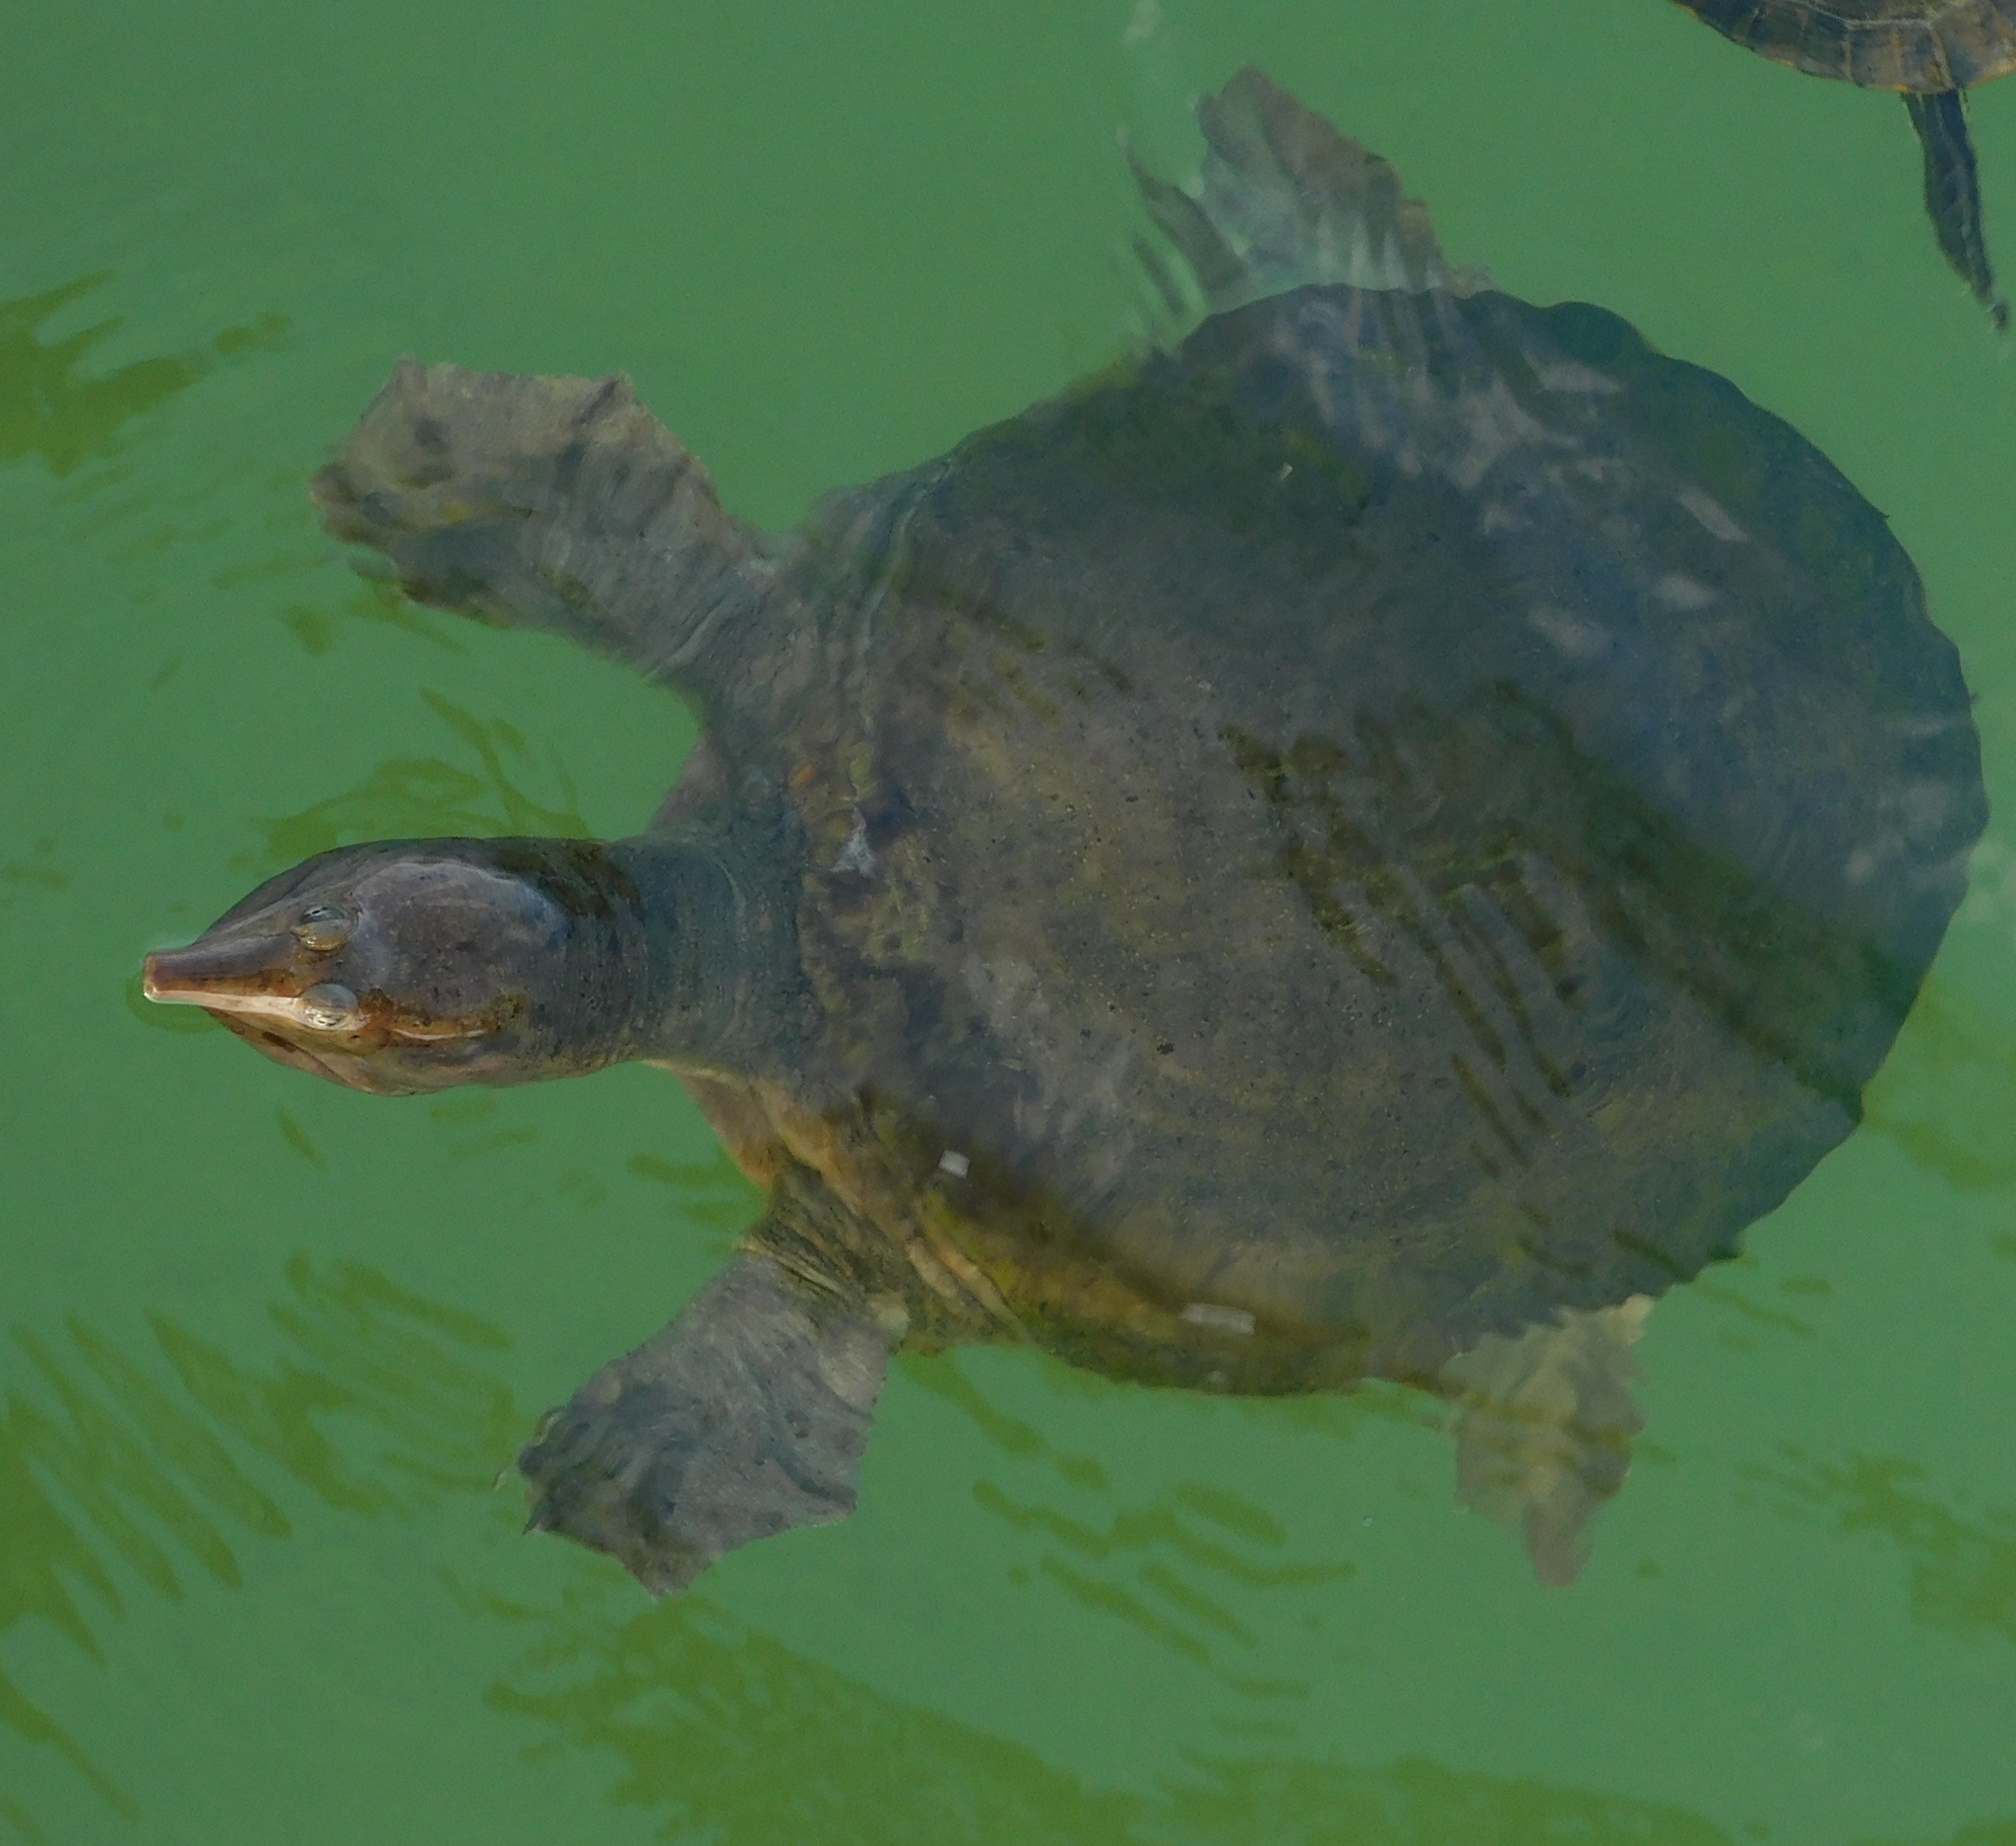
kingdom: Animalia
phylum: Chordata
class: Testudines
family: Trionychidae
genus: Apalone
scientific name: Apalone ferox
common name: Florida softshell turtle
